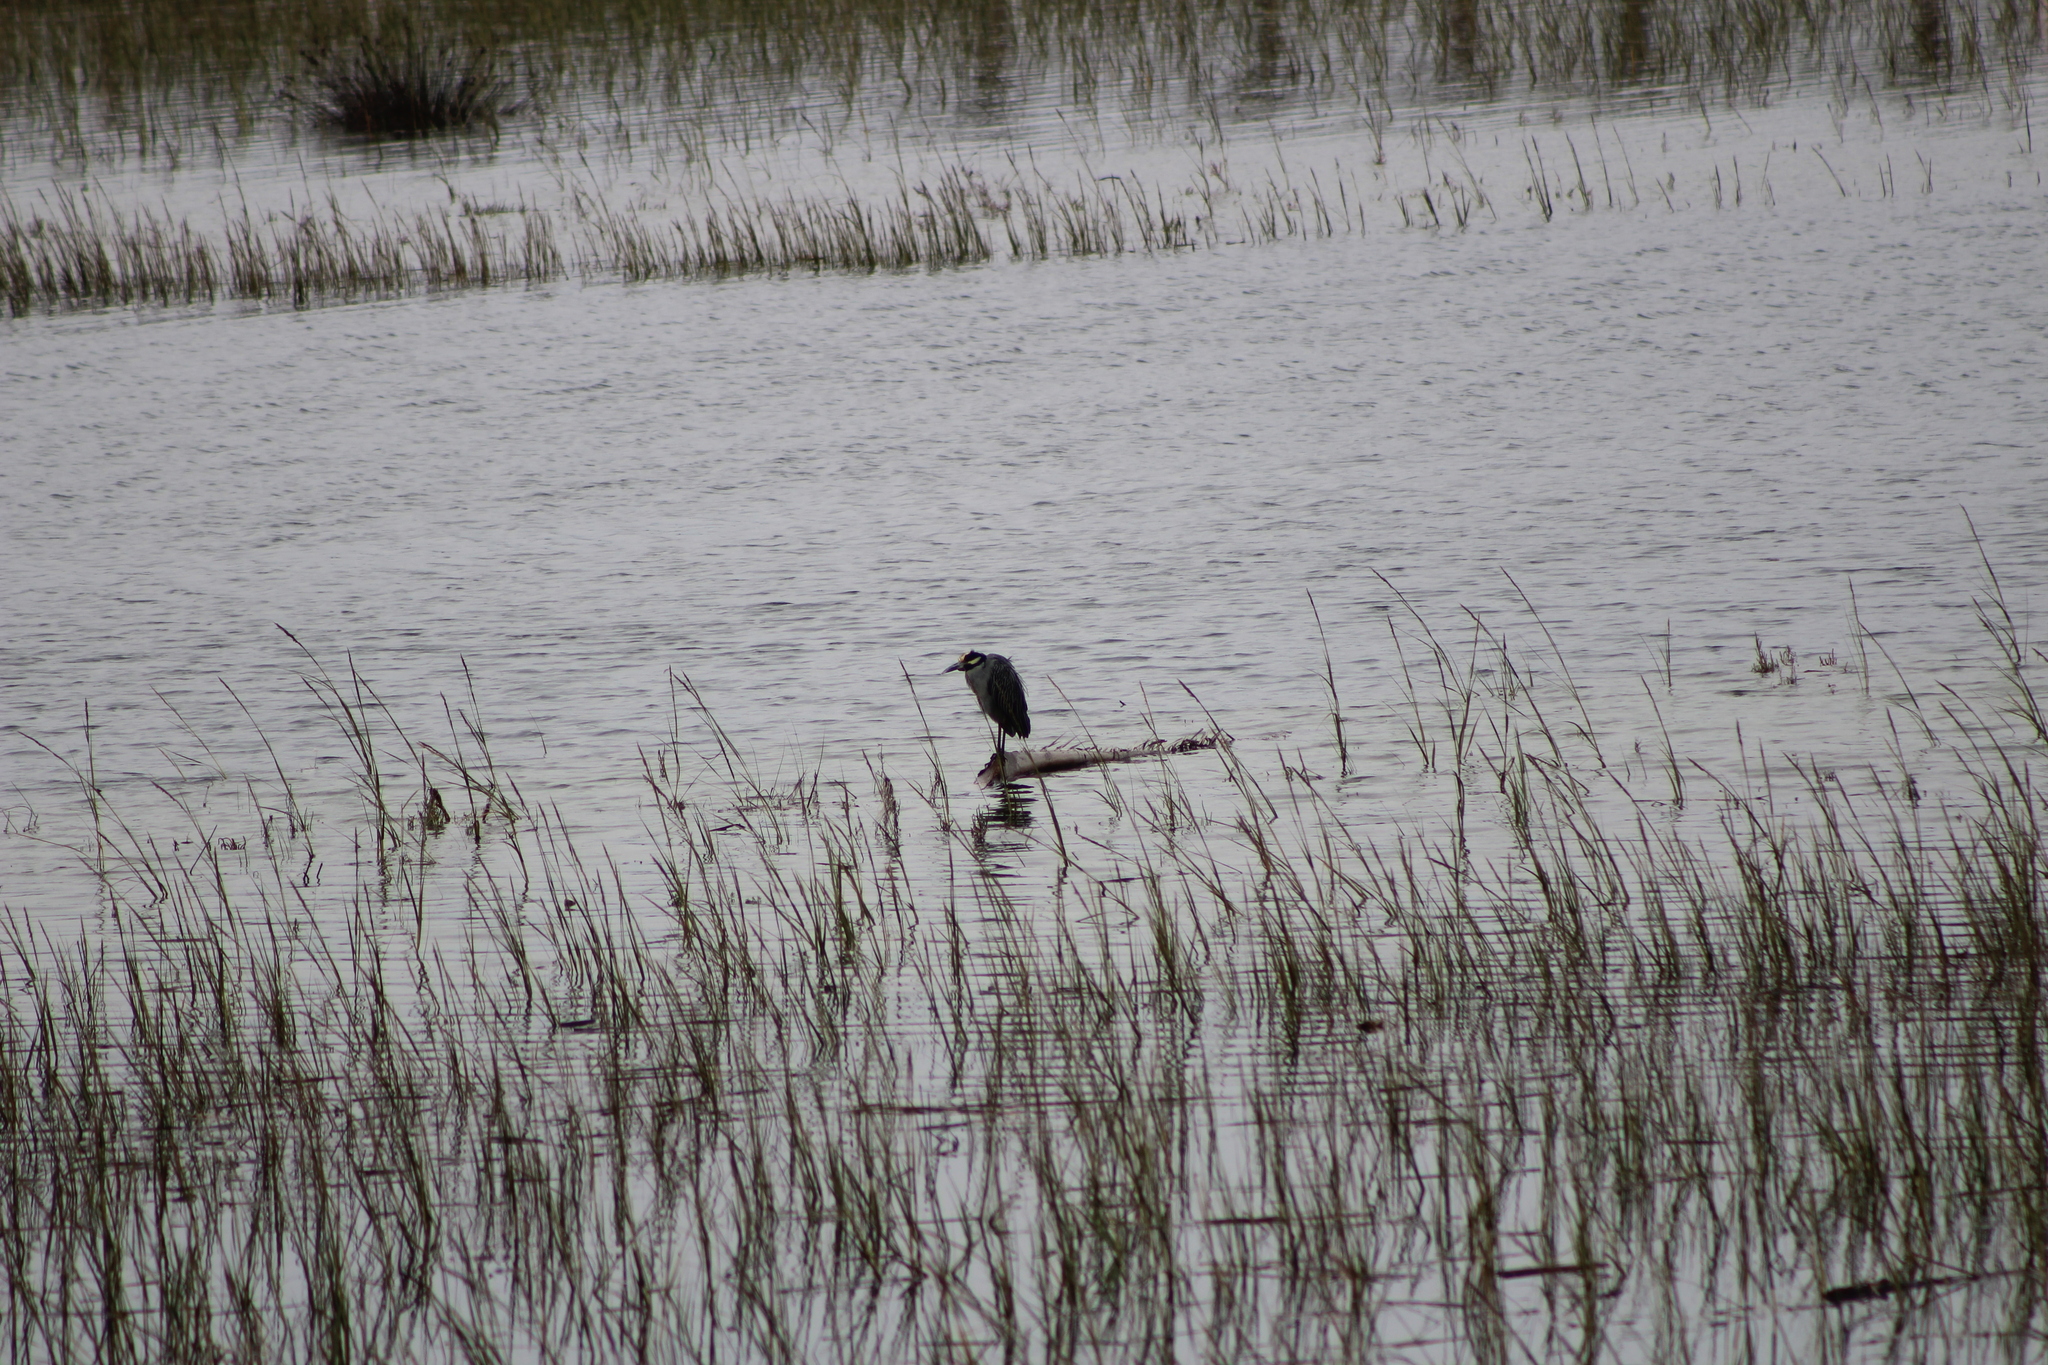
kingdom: Animalia
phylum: Chordata
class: Aves
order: Pelecaniformes
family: Ardeidae
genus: Nyctanassa
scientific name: Nyctanassa violacea
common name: Yellow-crowned night heron
